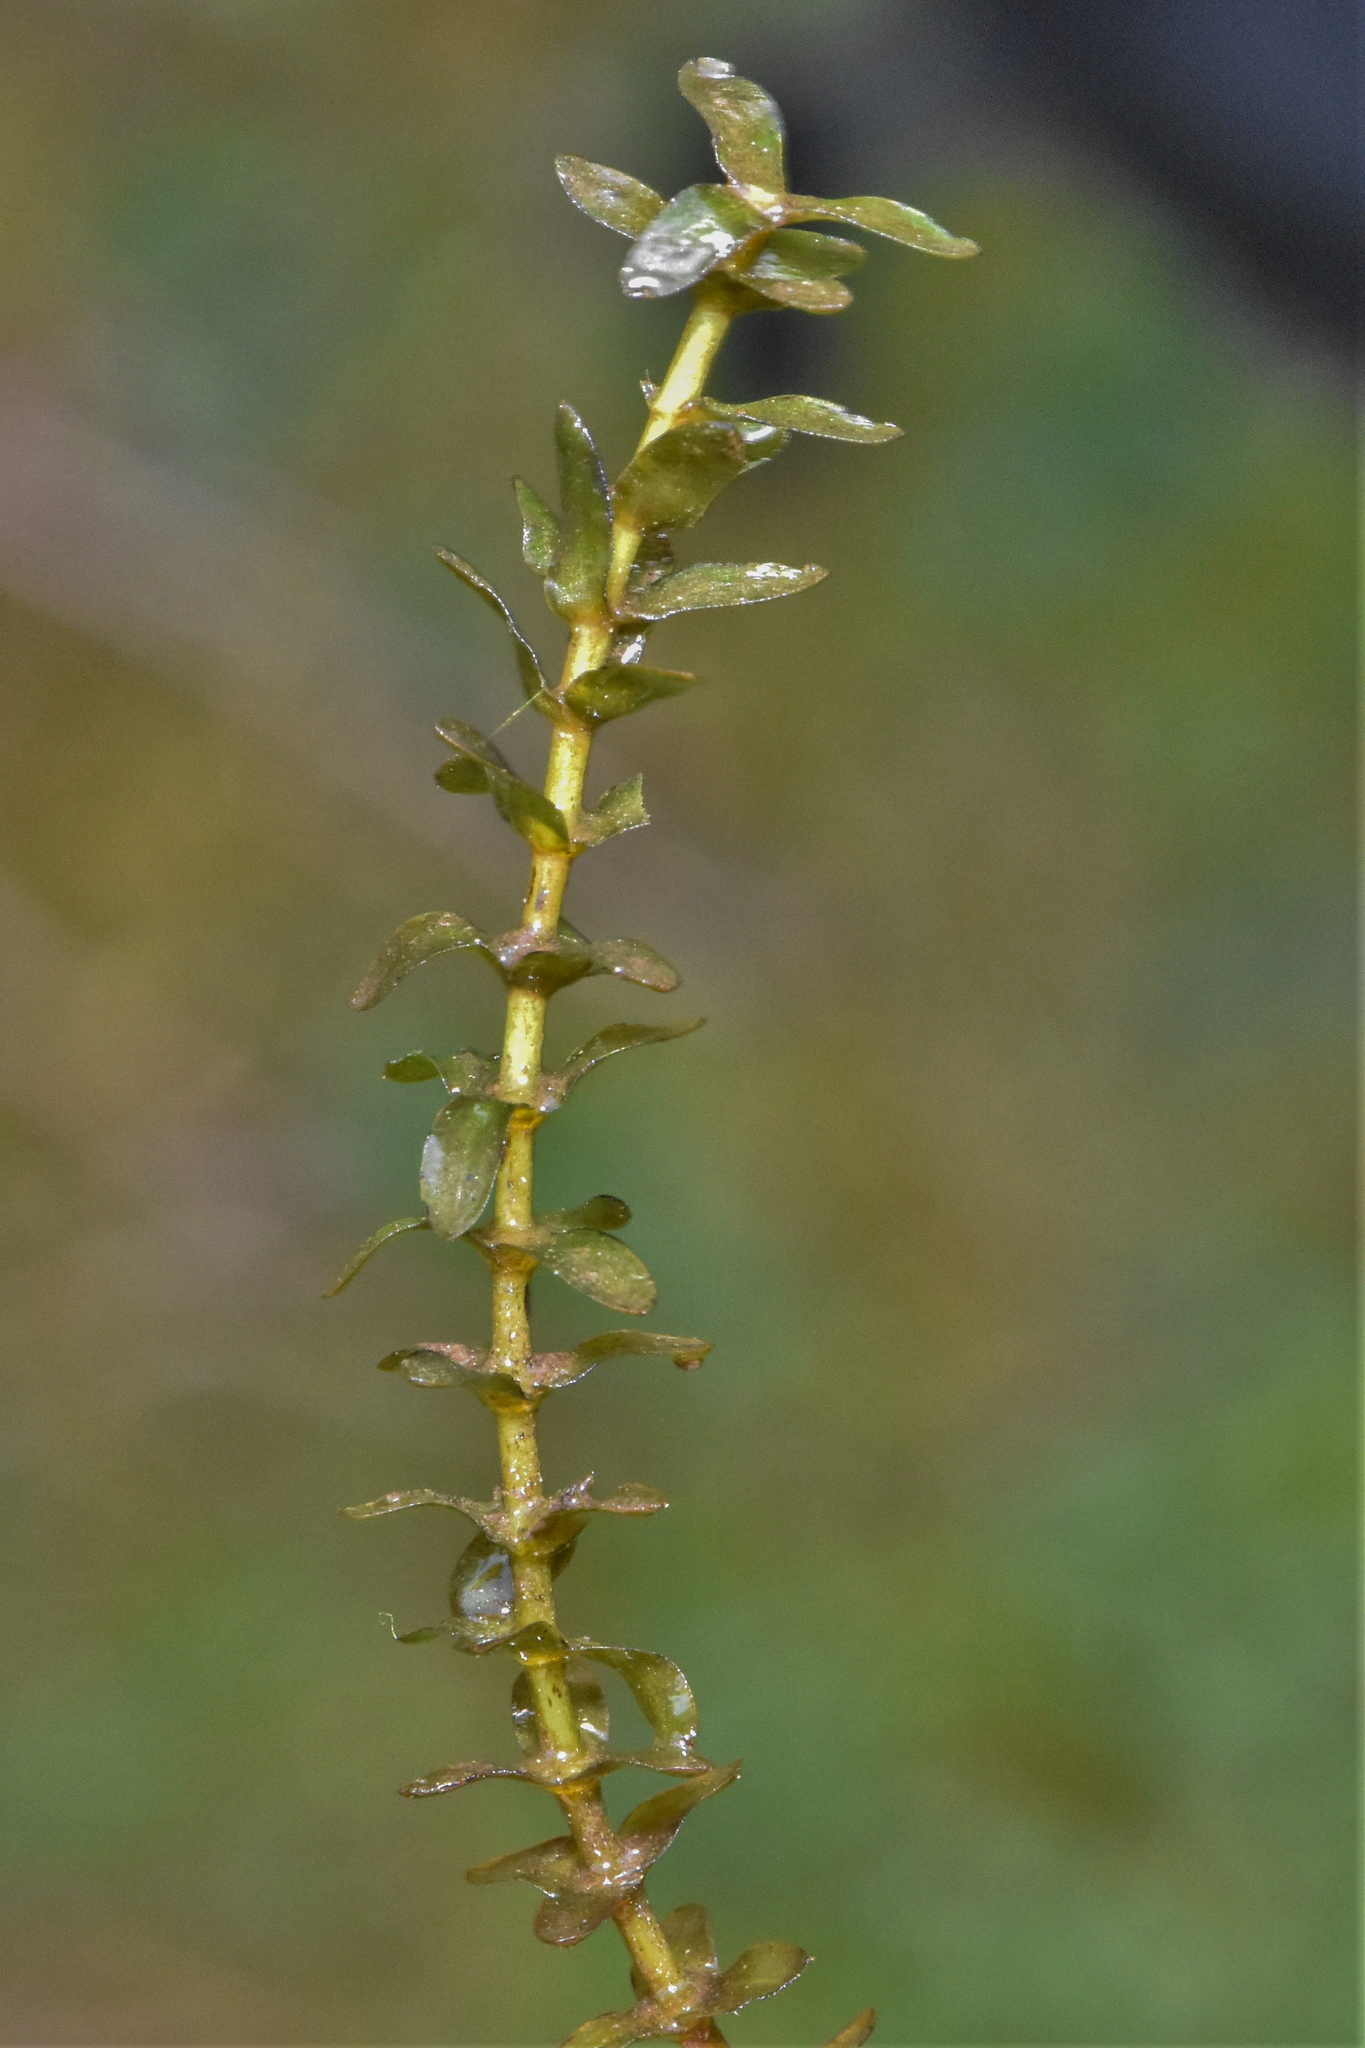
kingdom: Plantae
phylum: Tracheophyta
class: Liliopsida
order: Alismatales
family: Hydrocharitaceae
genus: Elodea
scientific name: Elodea canadensis
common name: Canadian waterweed
